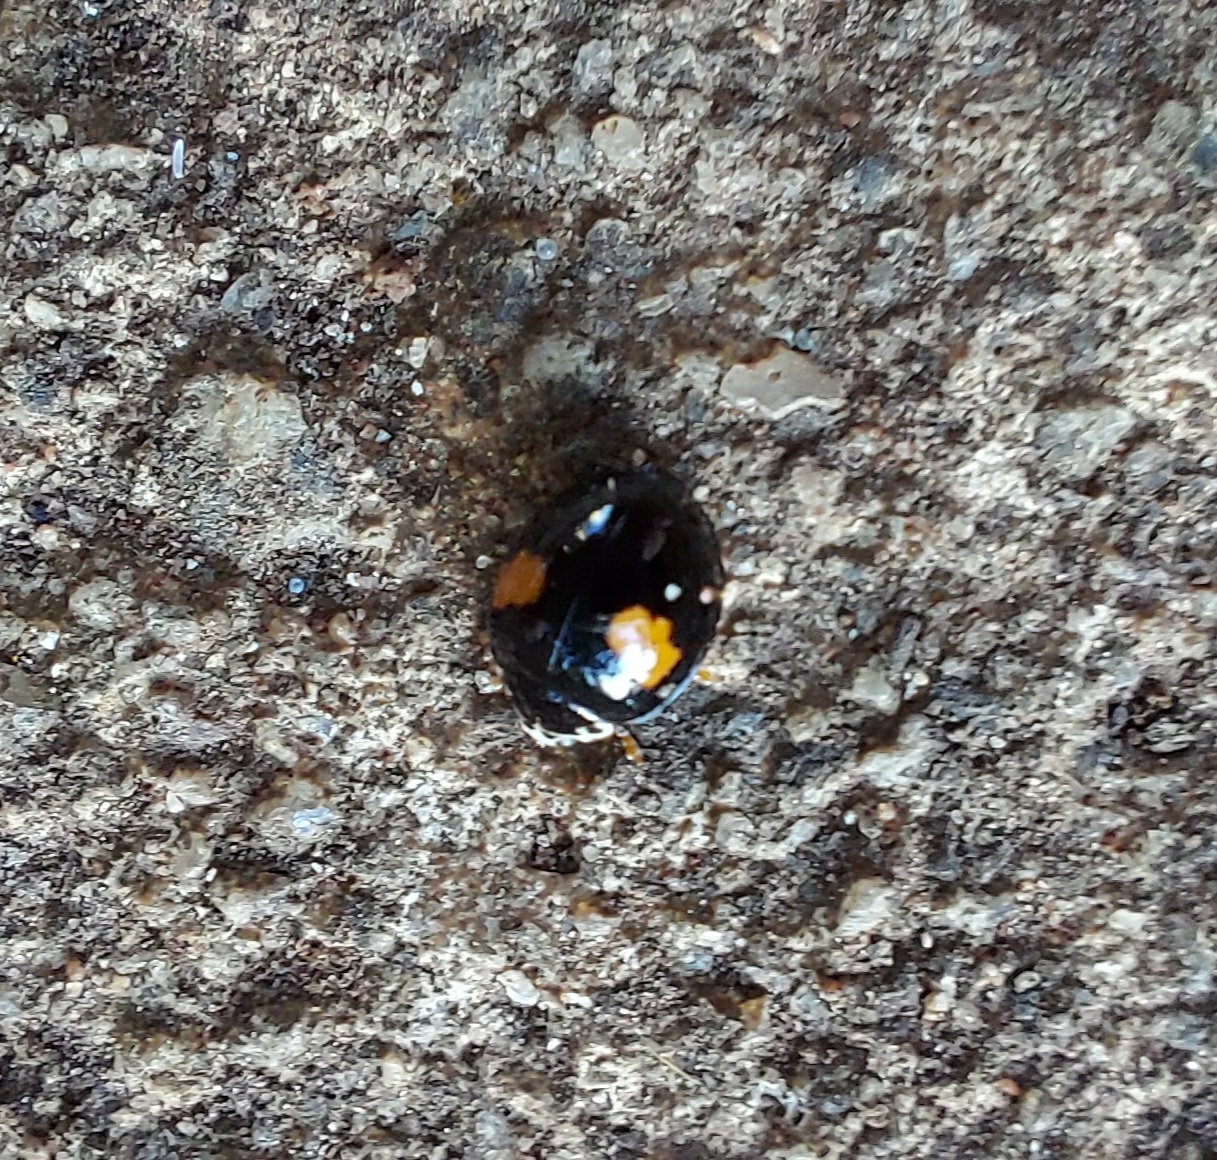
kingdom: Animalia
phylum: Arthropoda
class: Insecta
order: Coleoptera
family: Coccinellidae
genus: Olla
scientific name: Olla v-nigrum
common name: Ashy gray lady beetle
